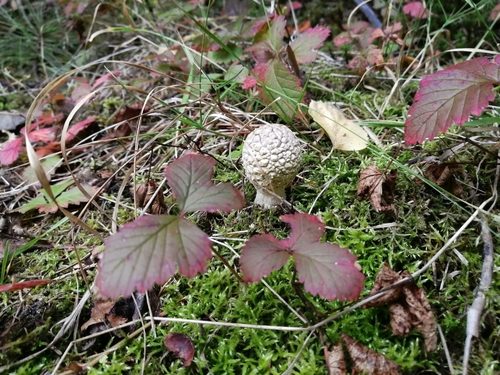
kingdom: Fungi
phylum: Basidiomycota
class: Agaricomycetes
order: Agaricales
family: Amanitaceae
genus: Amanita
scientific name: Amanita regalis
